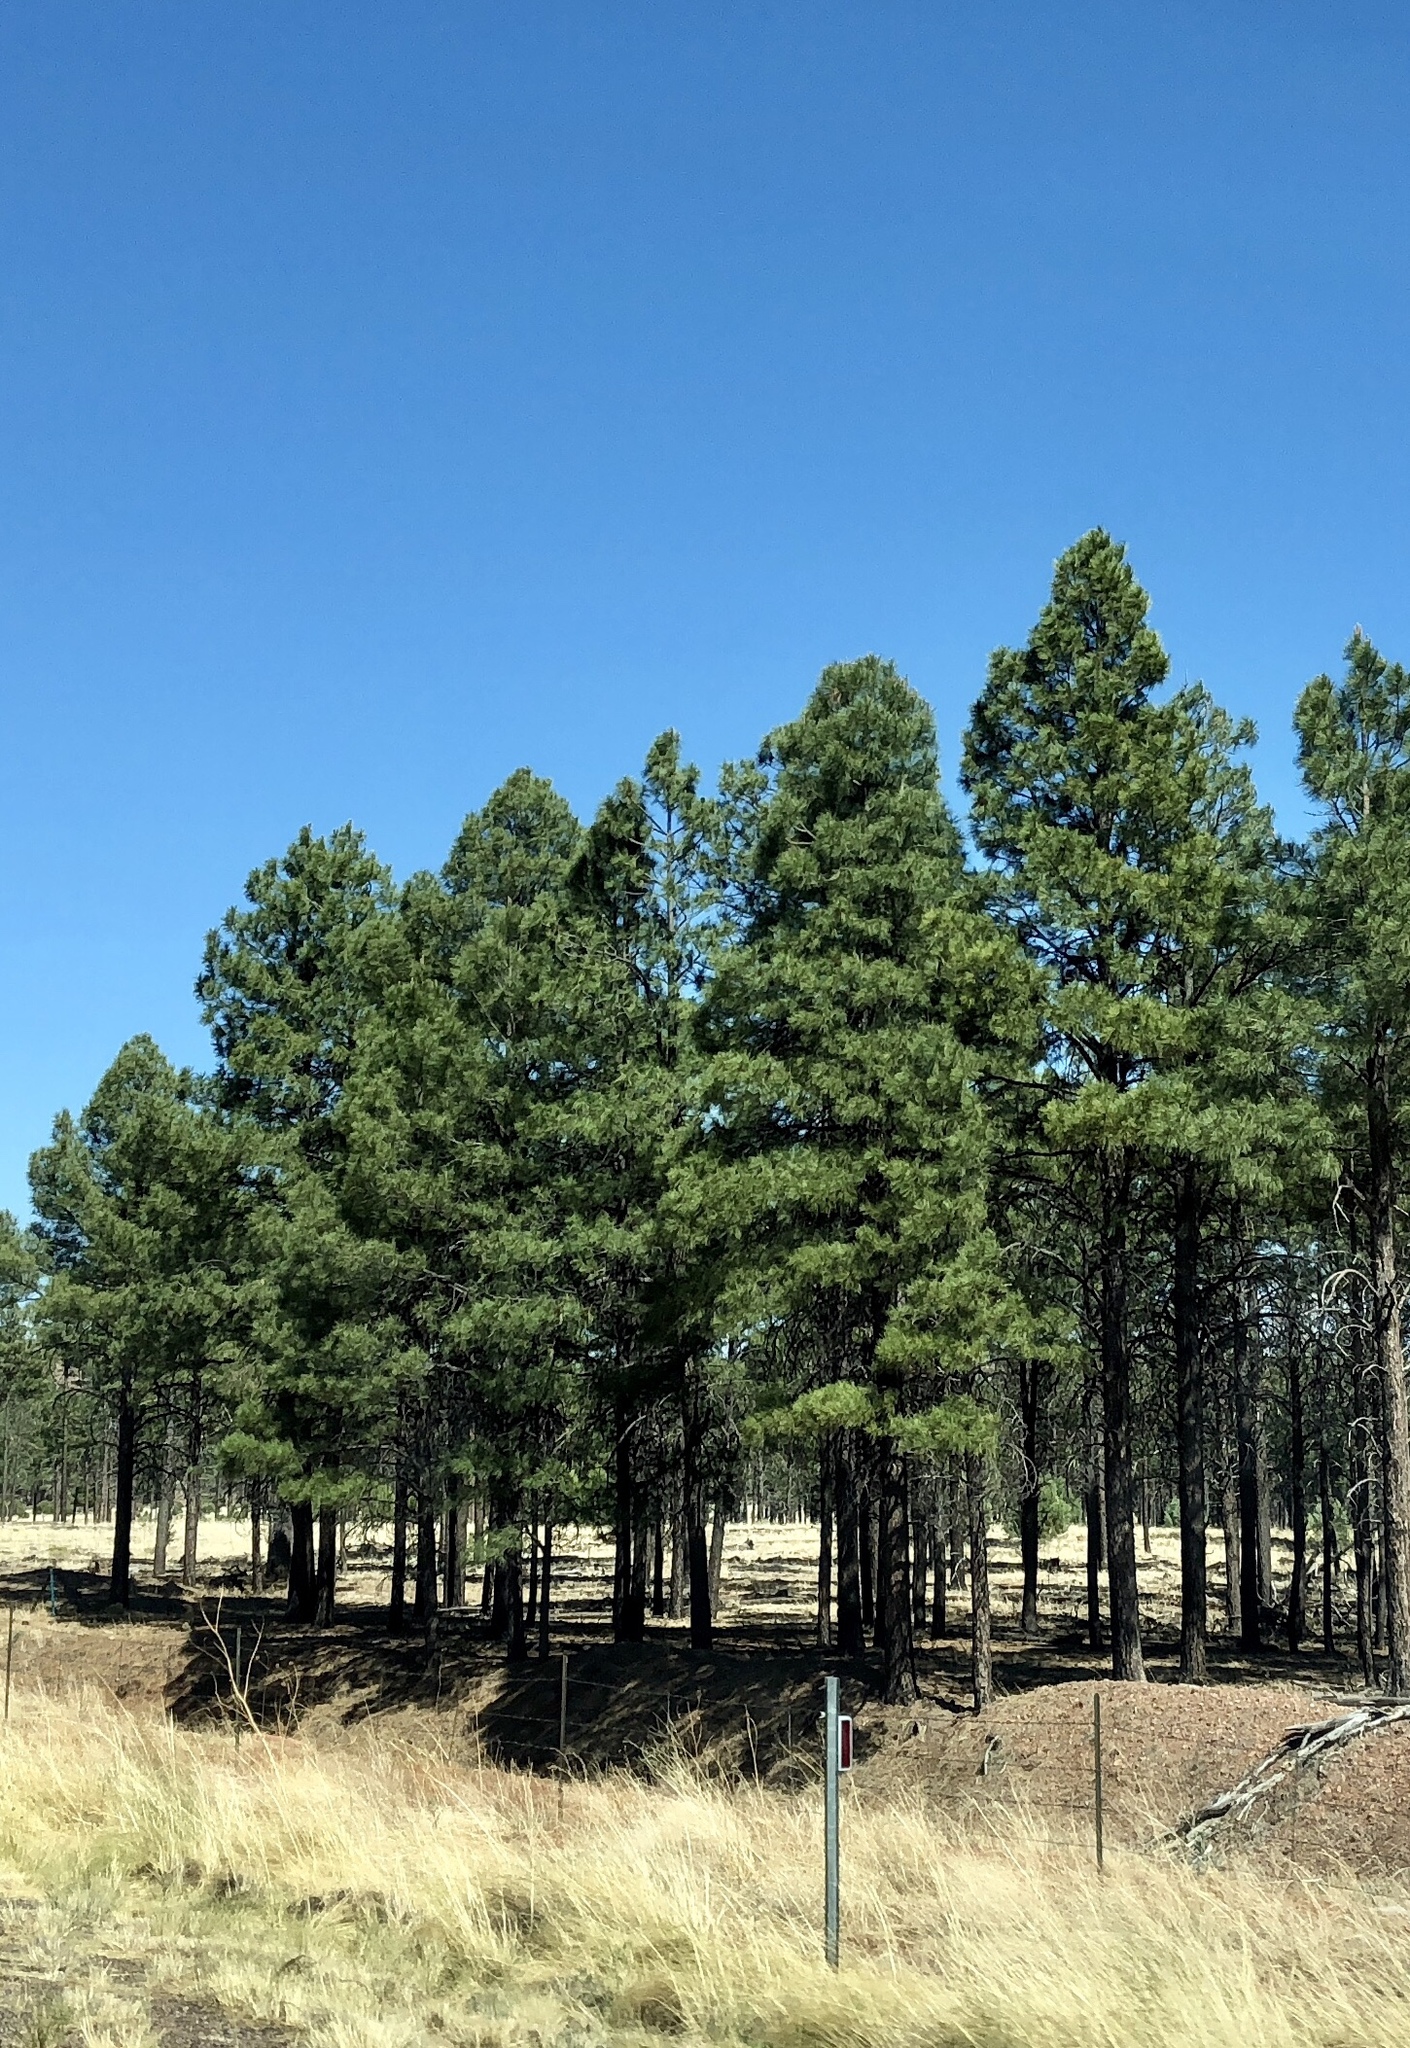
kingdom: Plantae
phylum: Tracheophyta
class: Pinopsida
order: Pinales
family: Pinaceae
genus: Pinus
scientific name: Pinus ponderosa
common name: Western yellow-pine
